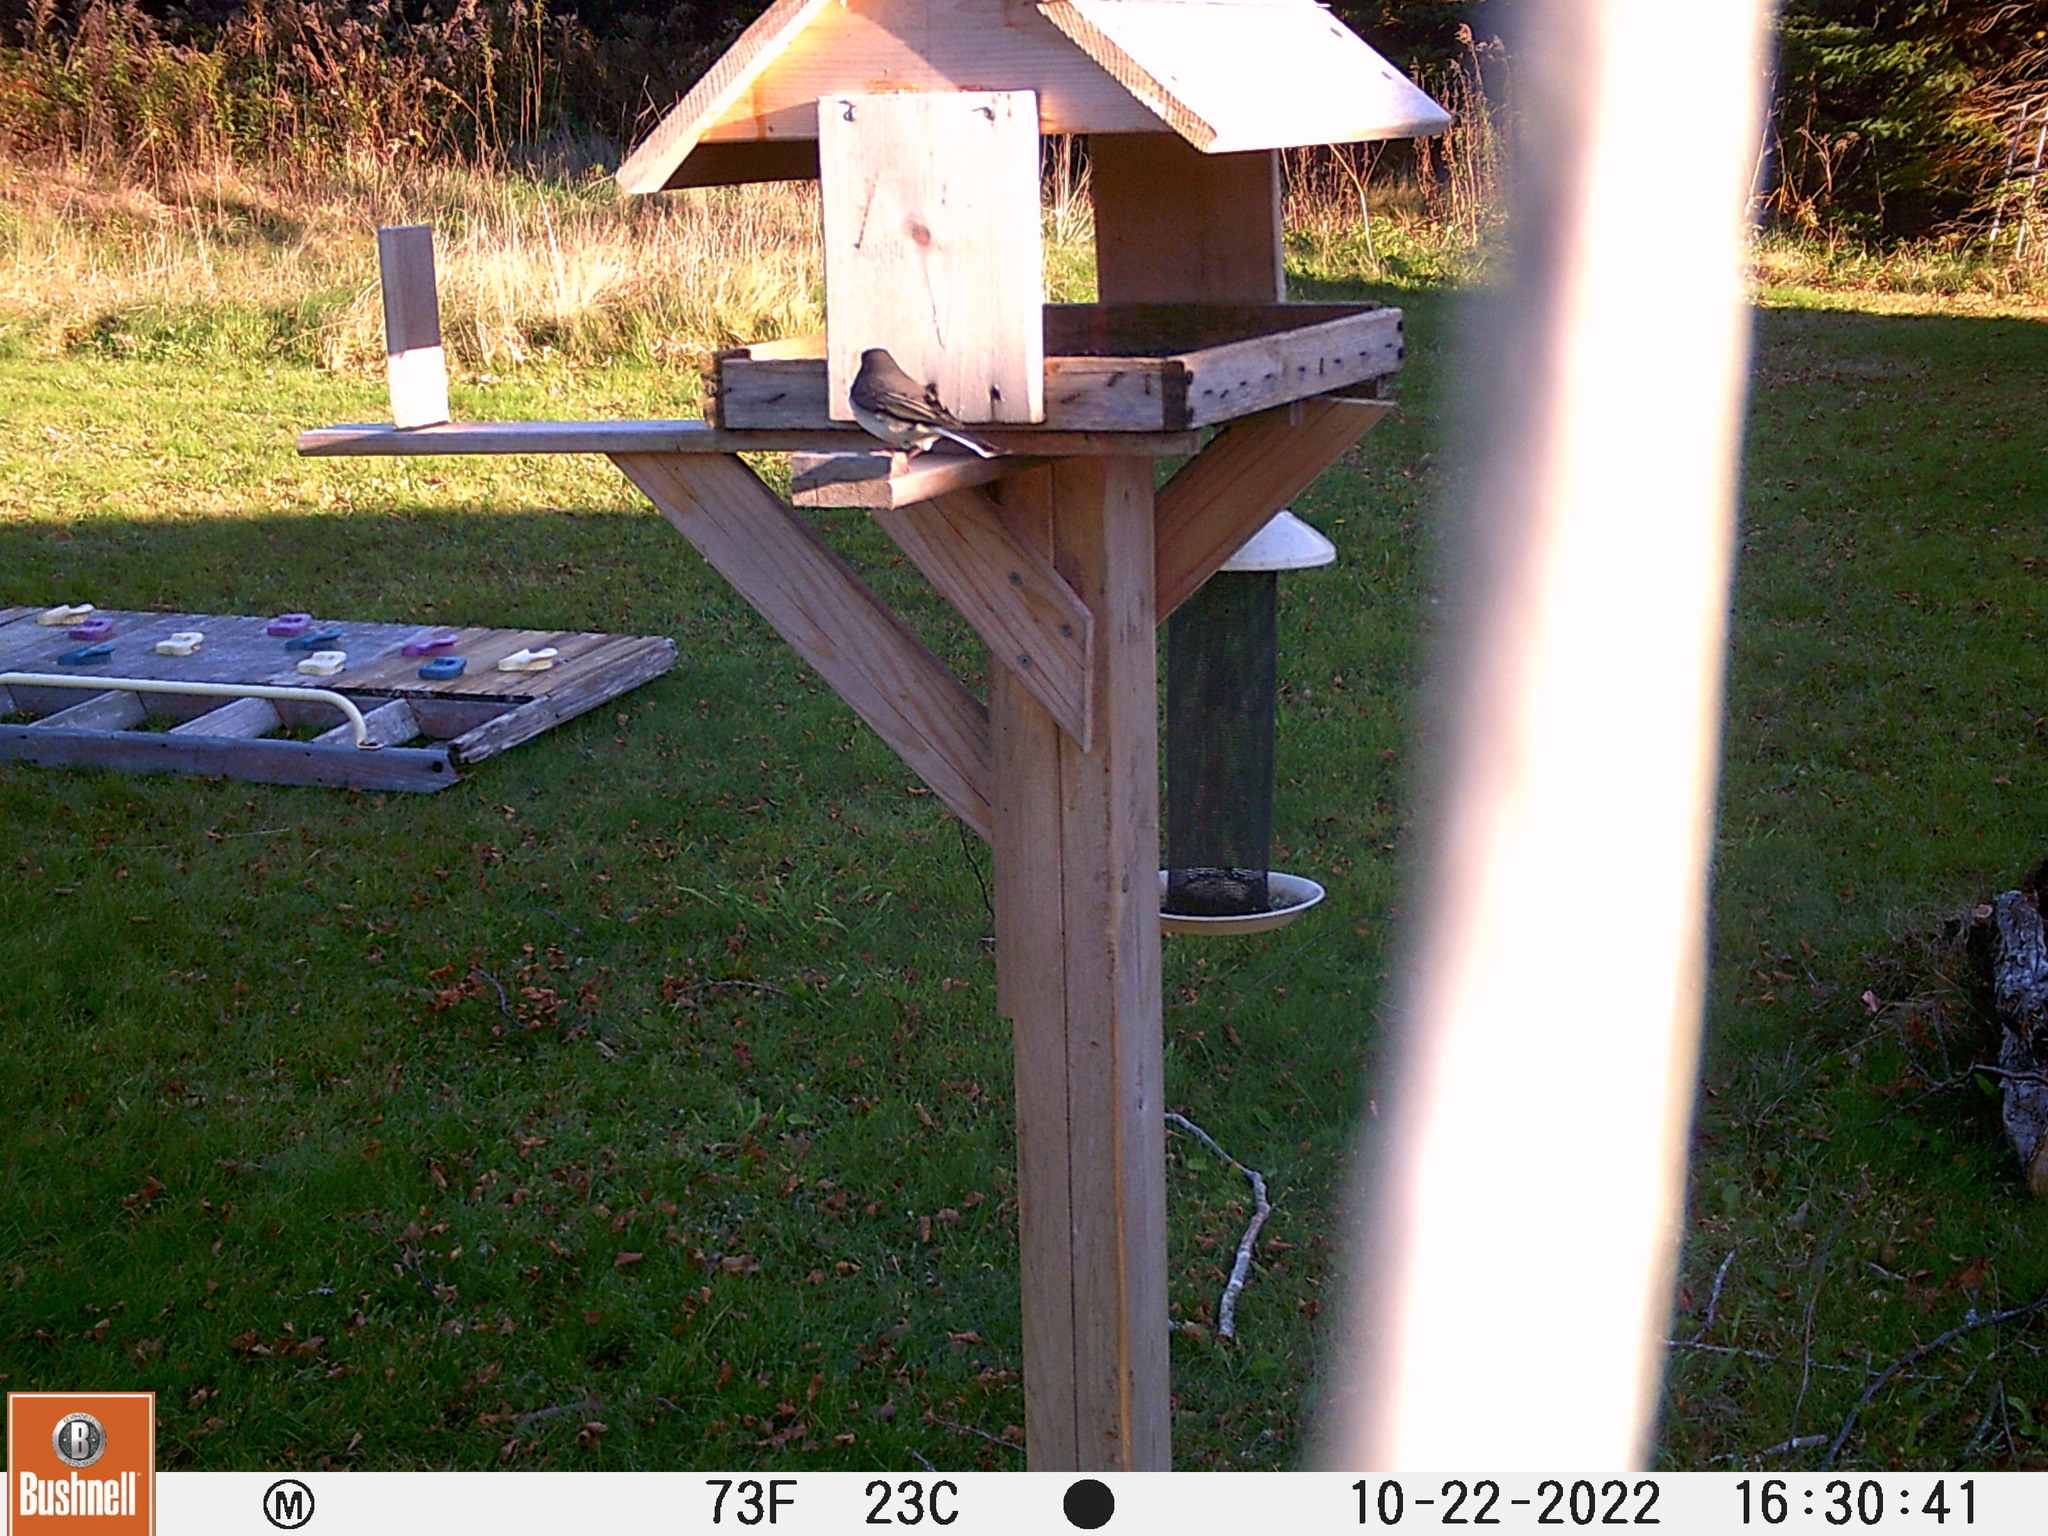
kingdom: Animalia
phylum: Chordata
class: Aves
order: Passeriformes
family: Passerellidae
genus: Junco
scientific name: Junco hyemalis
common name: Dark-eyed junco
